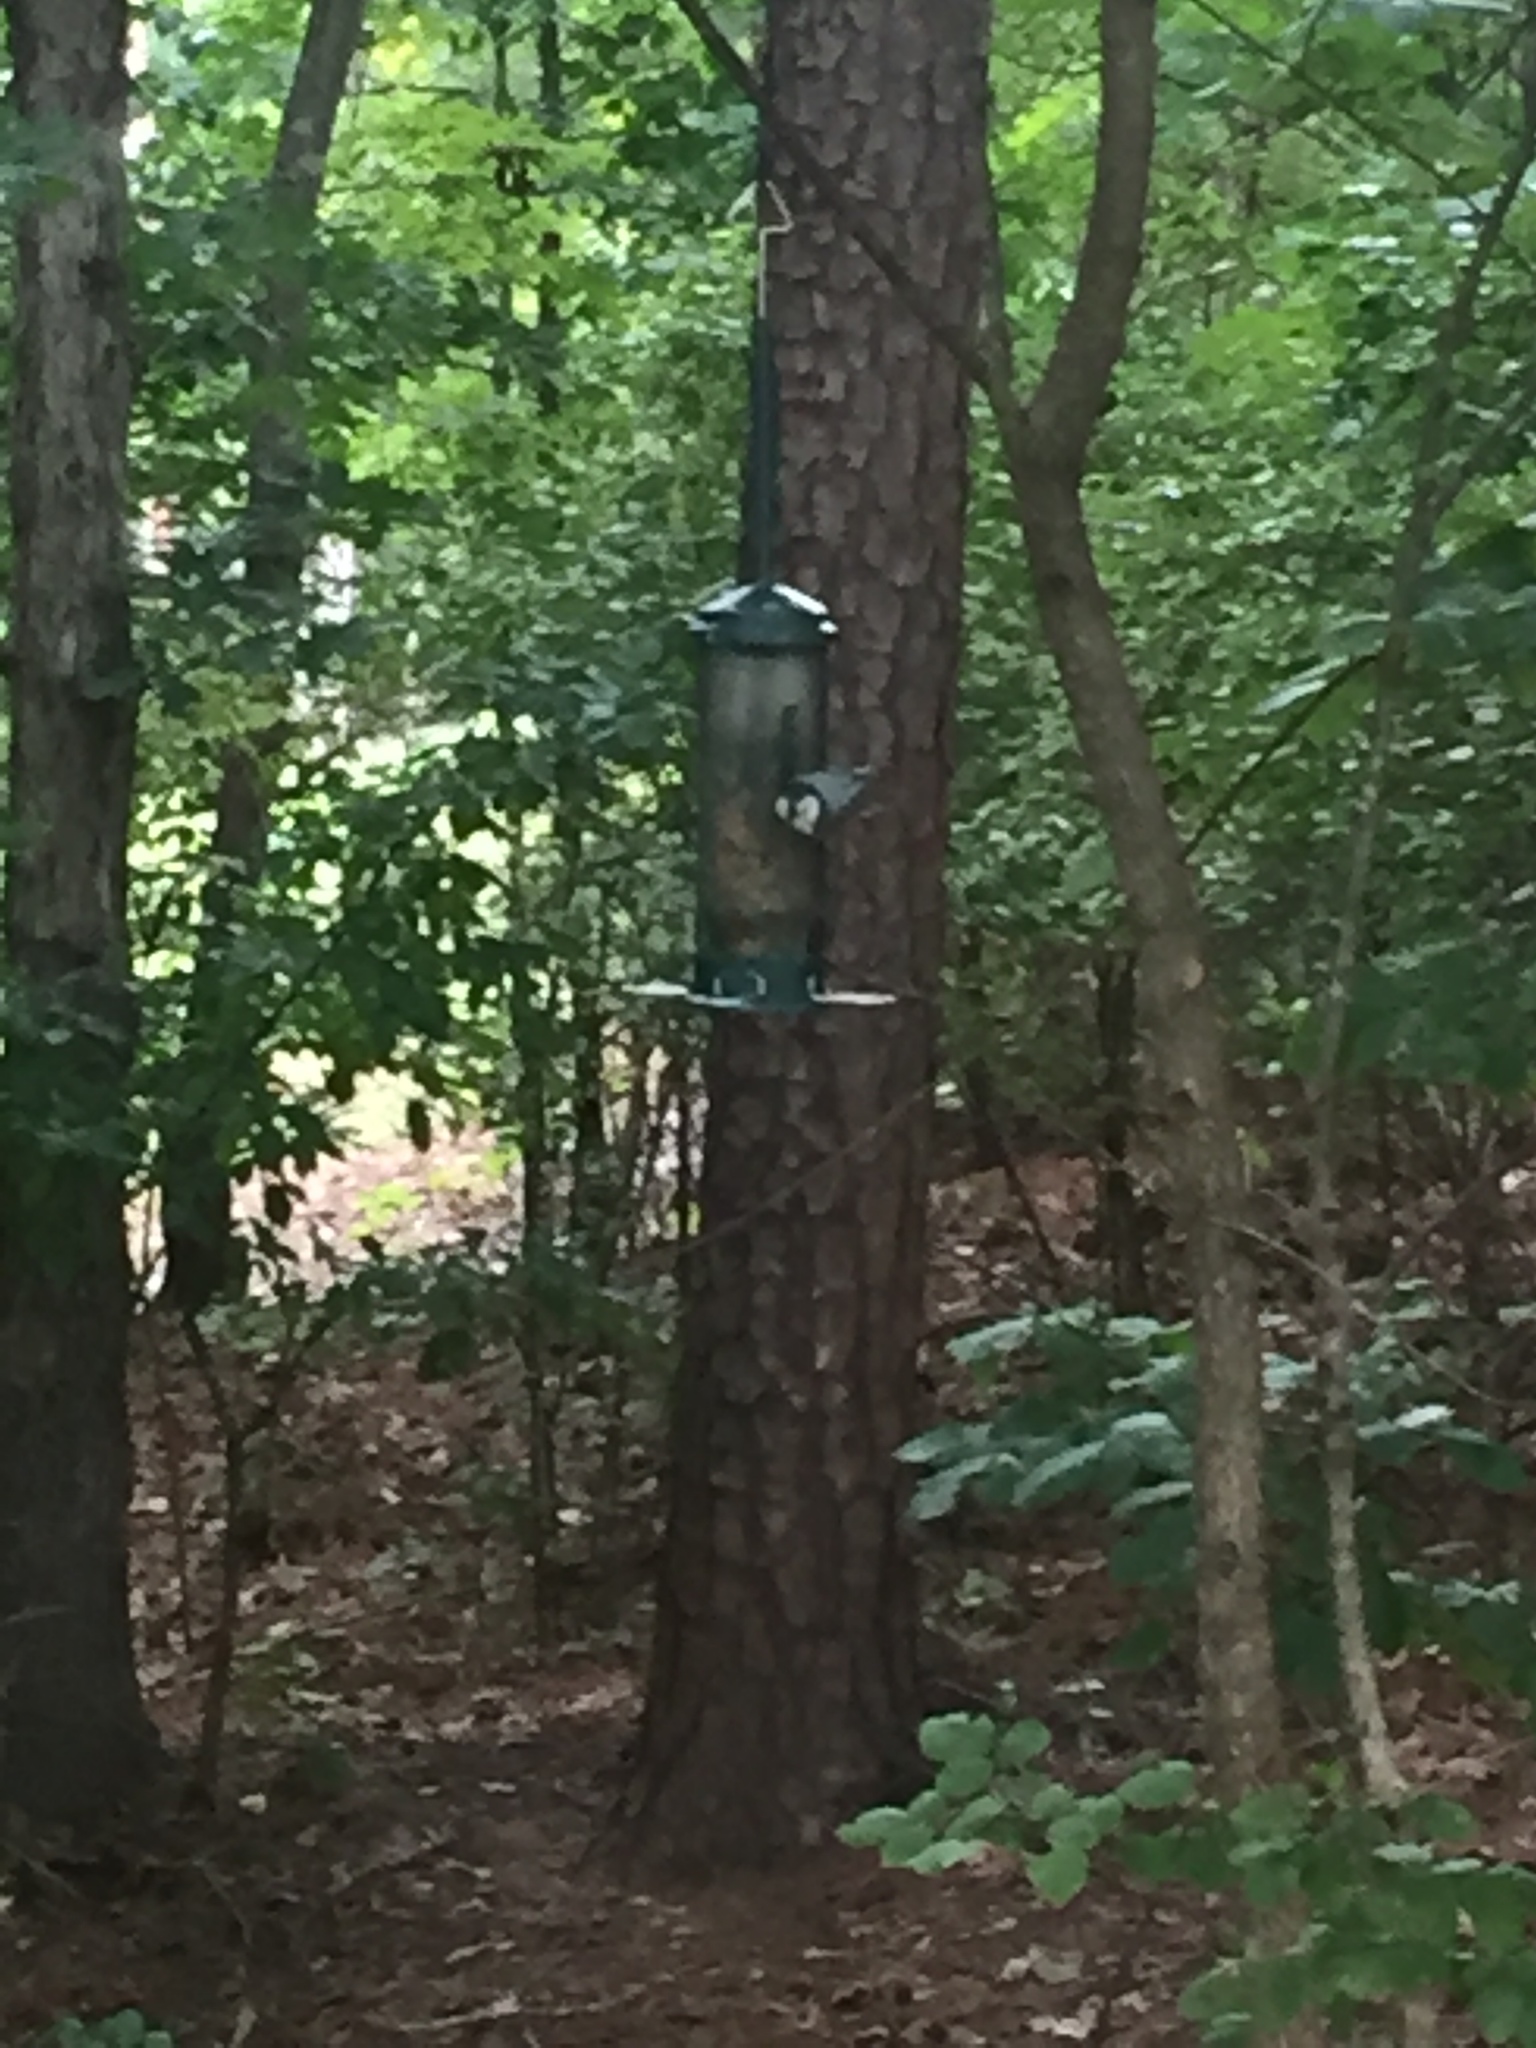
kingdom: Animalia
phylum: Chordata
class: Aves
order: Passeriformes
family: Sittidae
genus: Sitta
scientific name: Sitta carolinensis
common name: White-breasted nuthatch
